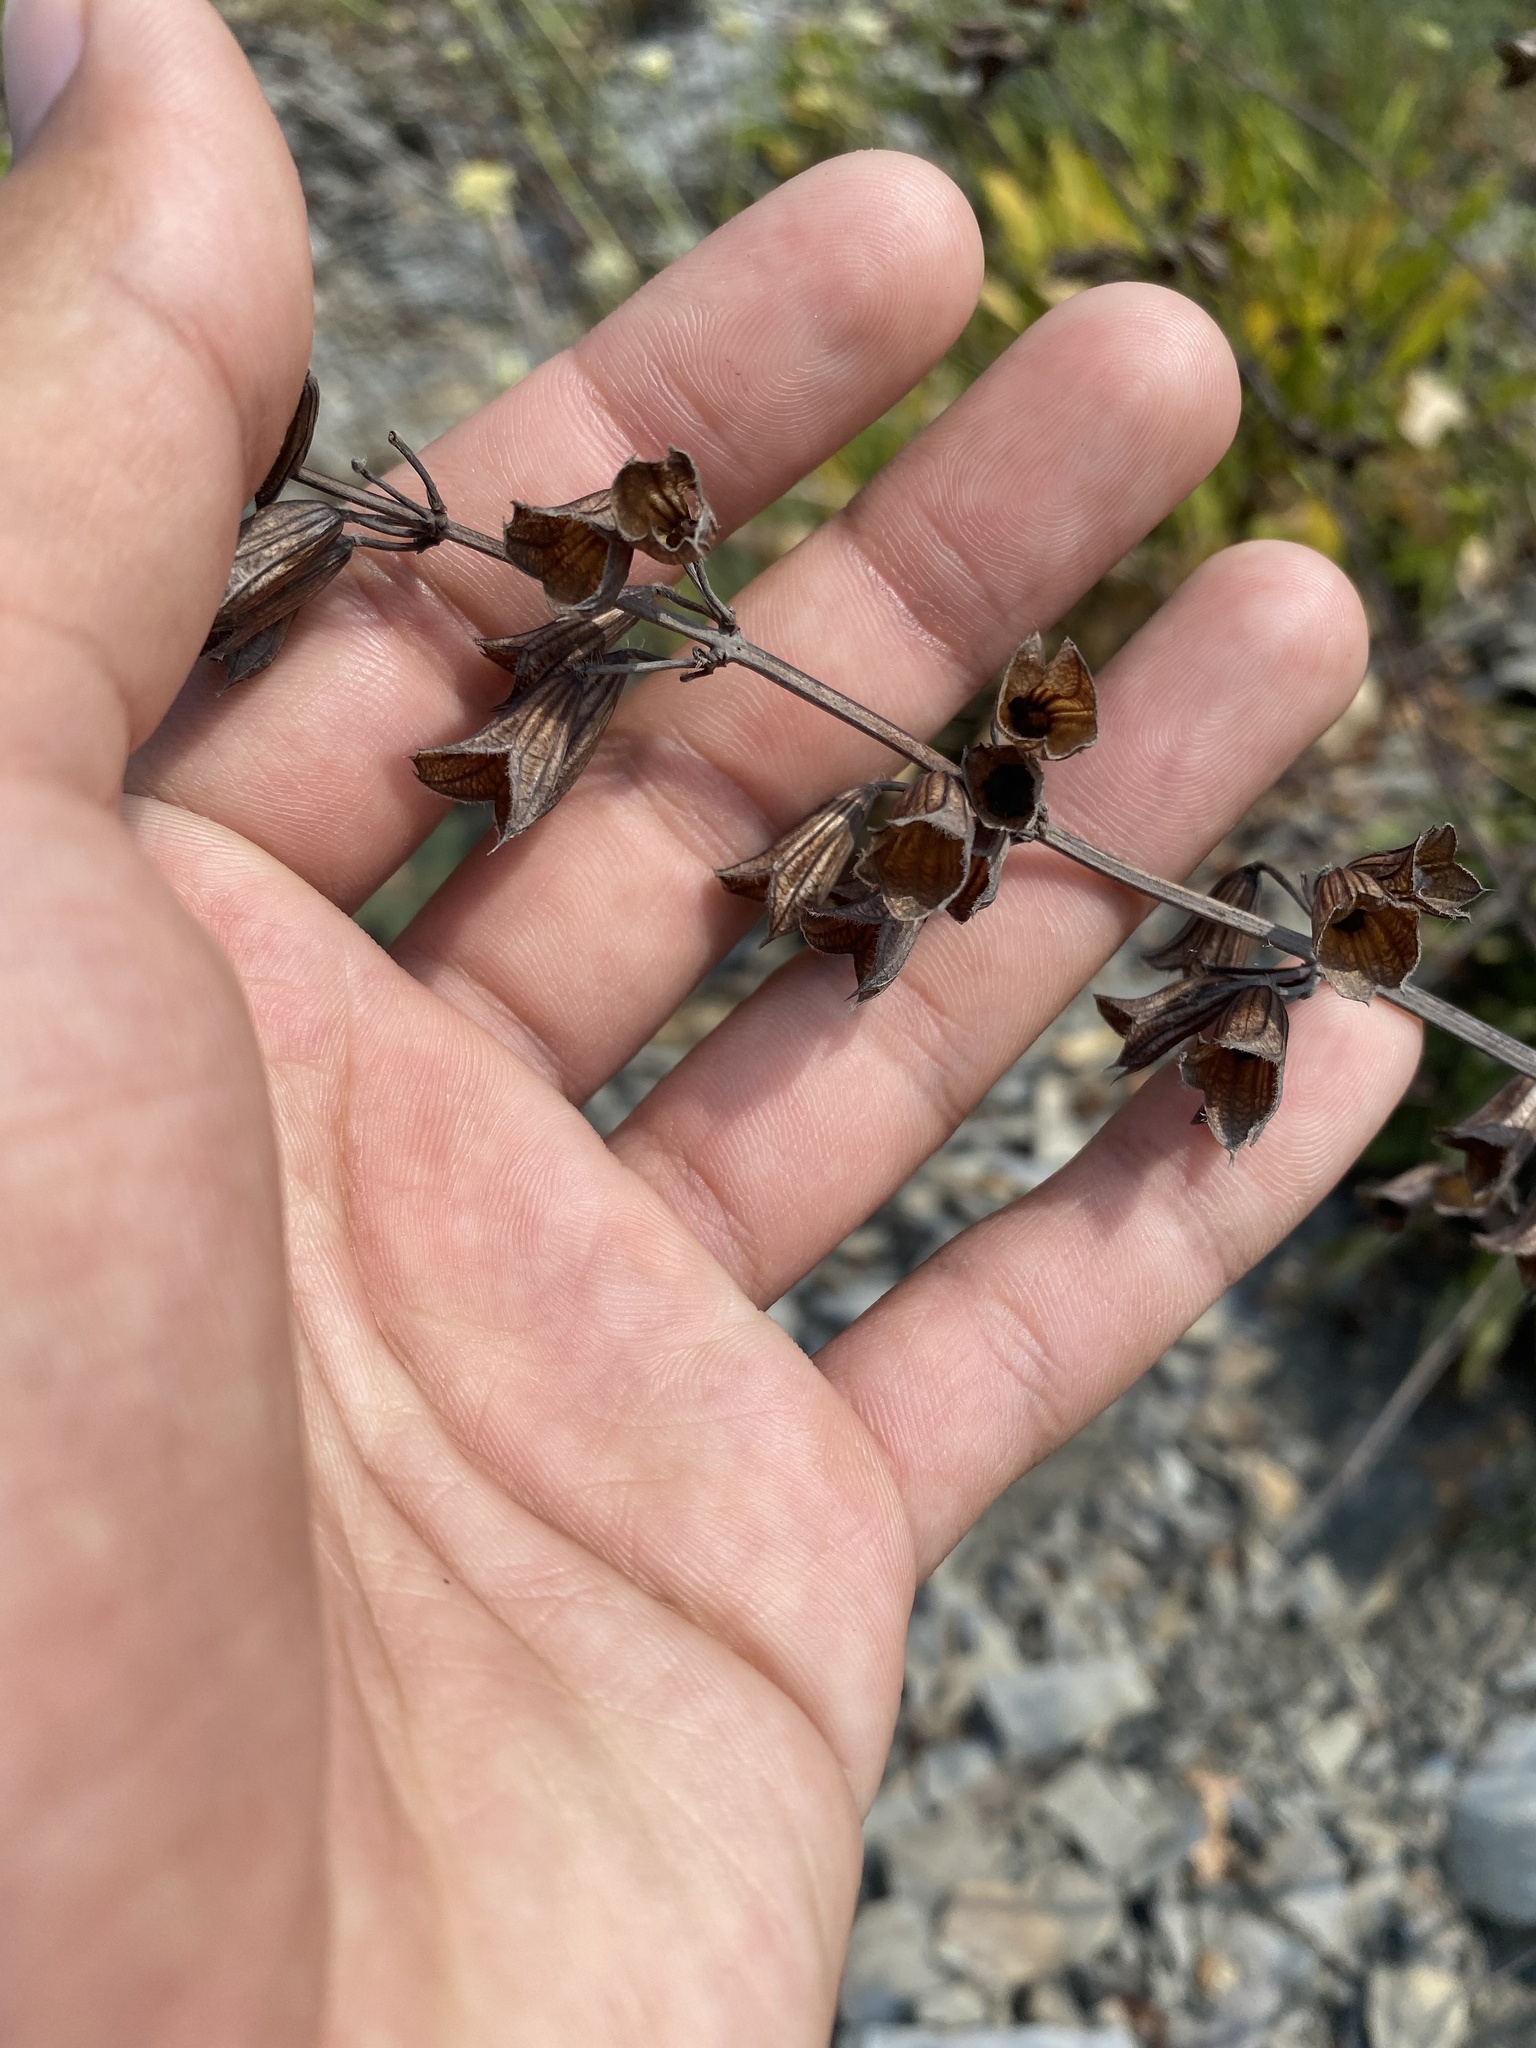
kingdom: Plantae
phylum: Tracheophyta
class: Magnoliopsida
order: Lamiales
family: Lamiaceae
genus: Salvia
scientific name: Salvia ringens
